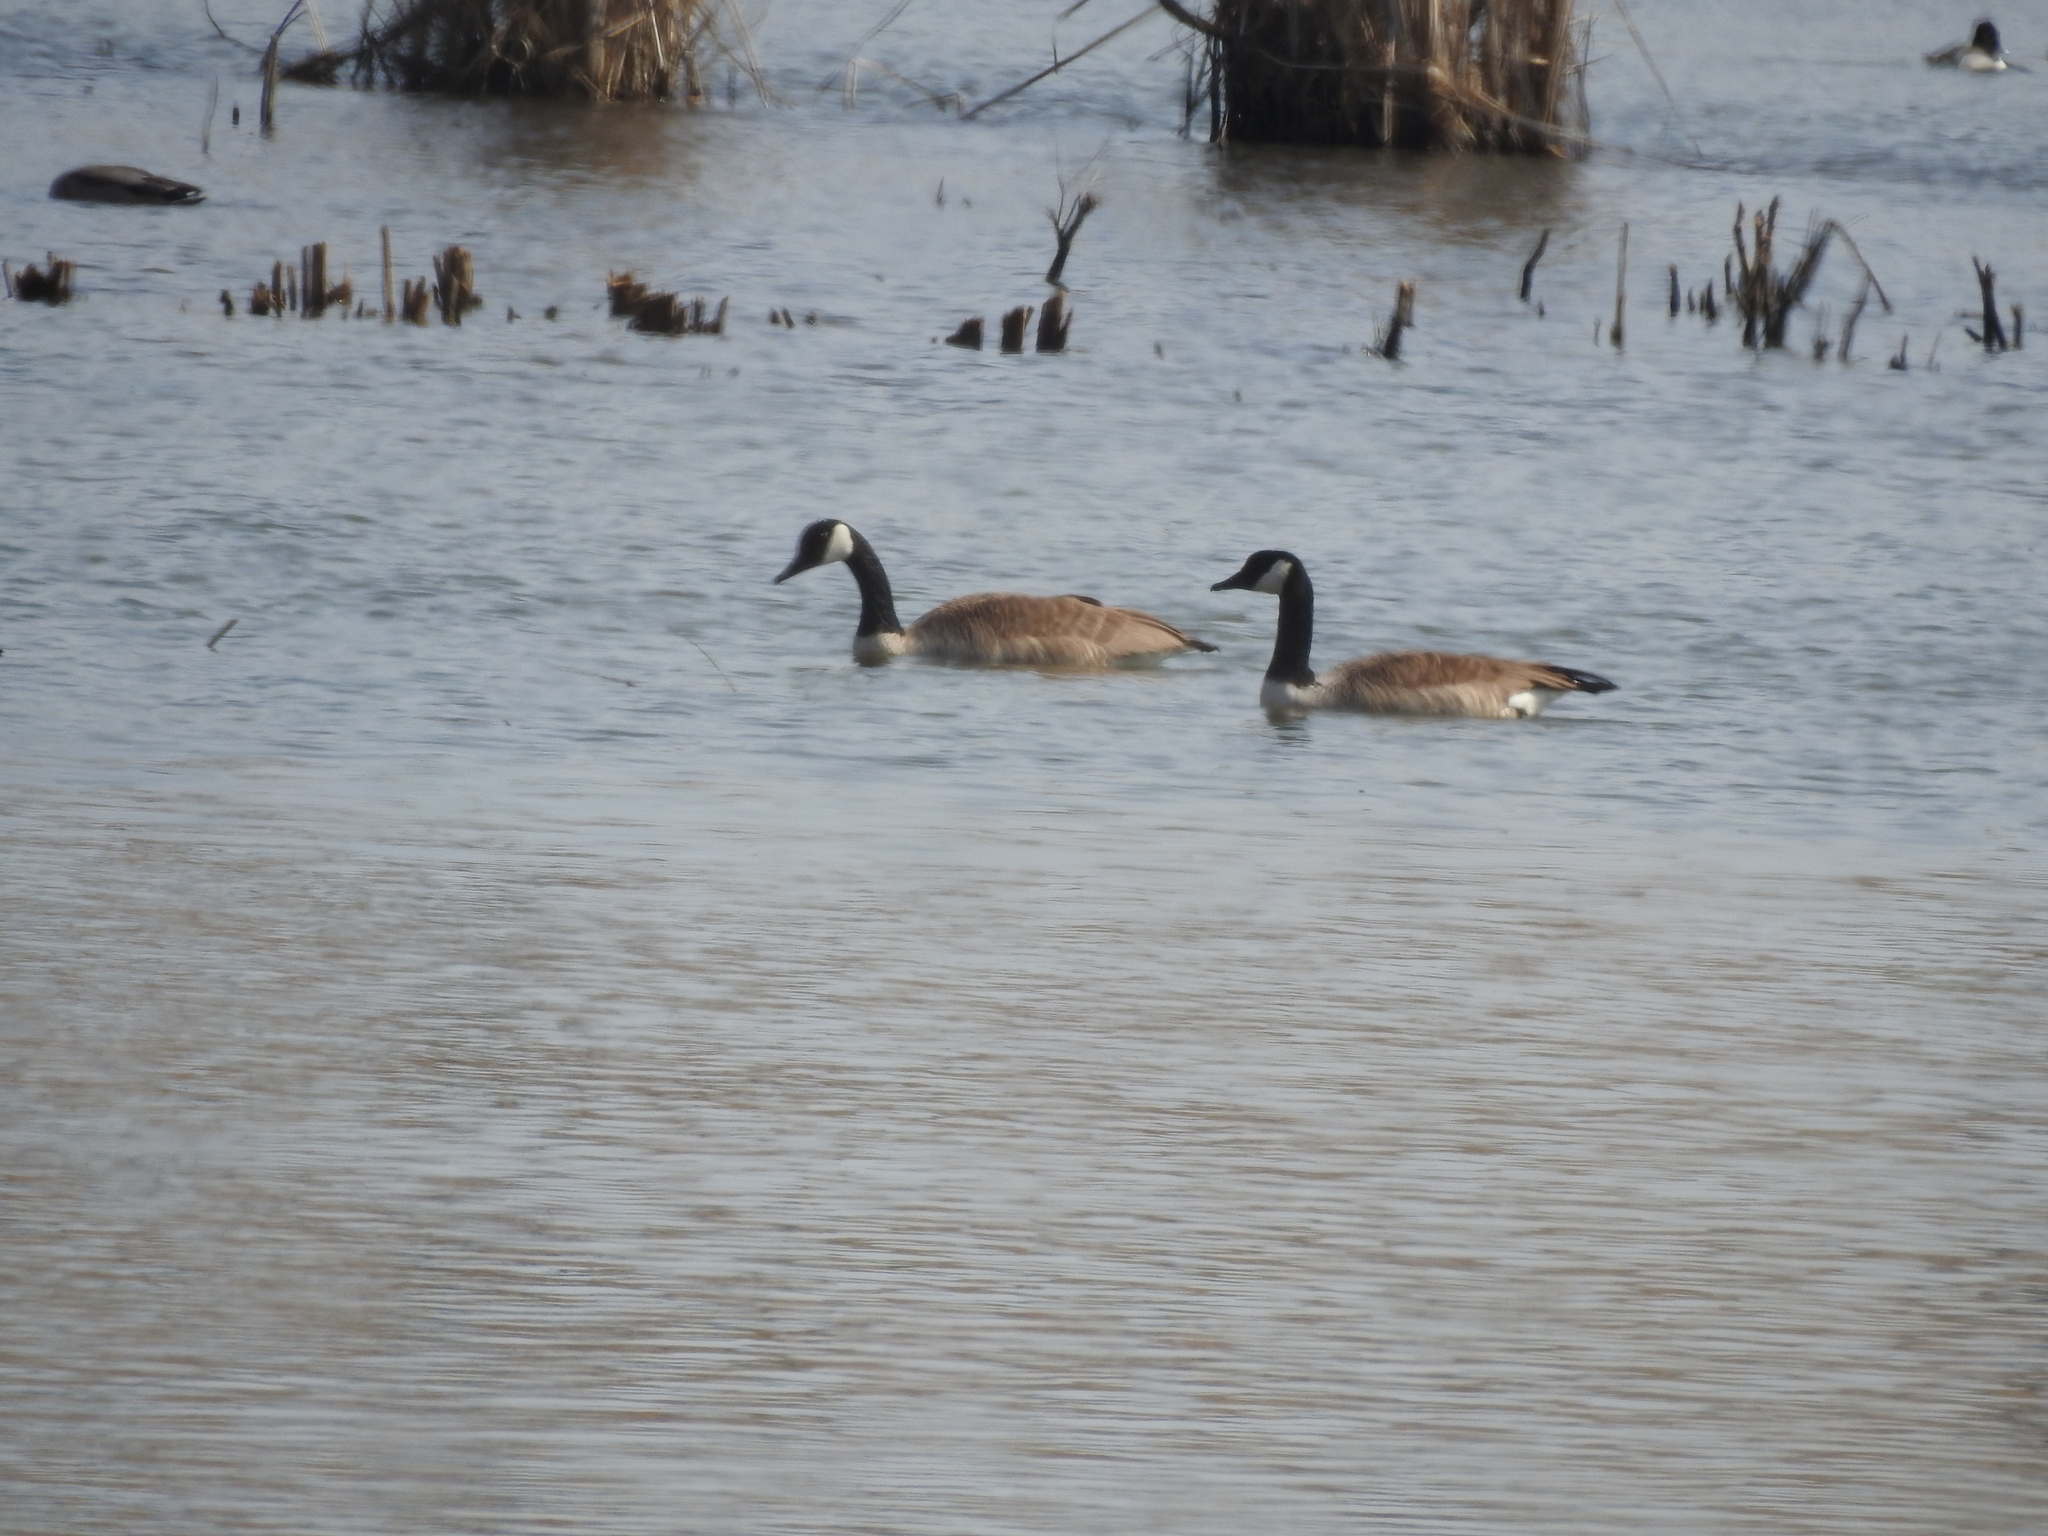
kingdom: Animalia
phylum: Chordata
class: Aves
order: Anseriformes
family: Anatidae
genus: Branta
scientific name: Branta canadensis
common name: Canada goose
